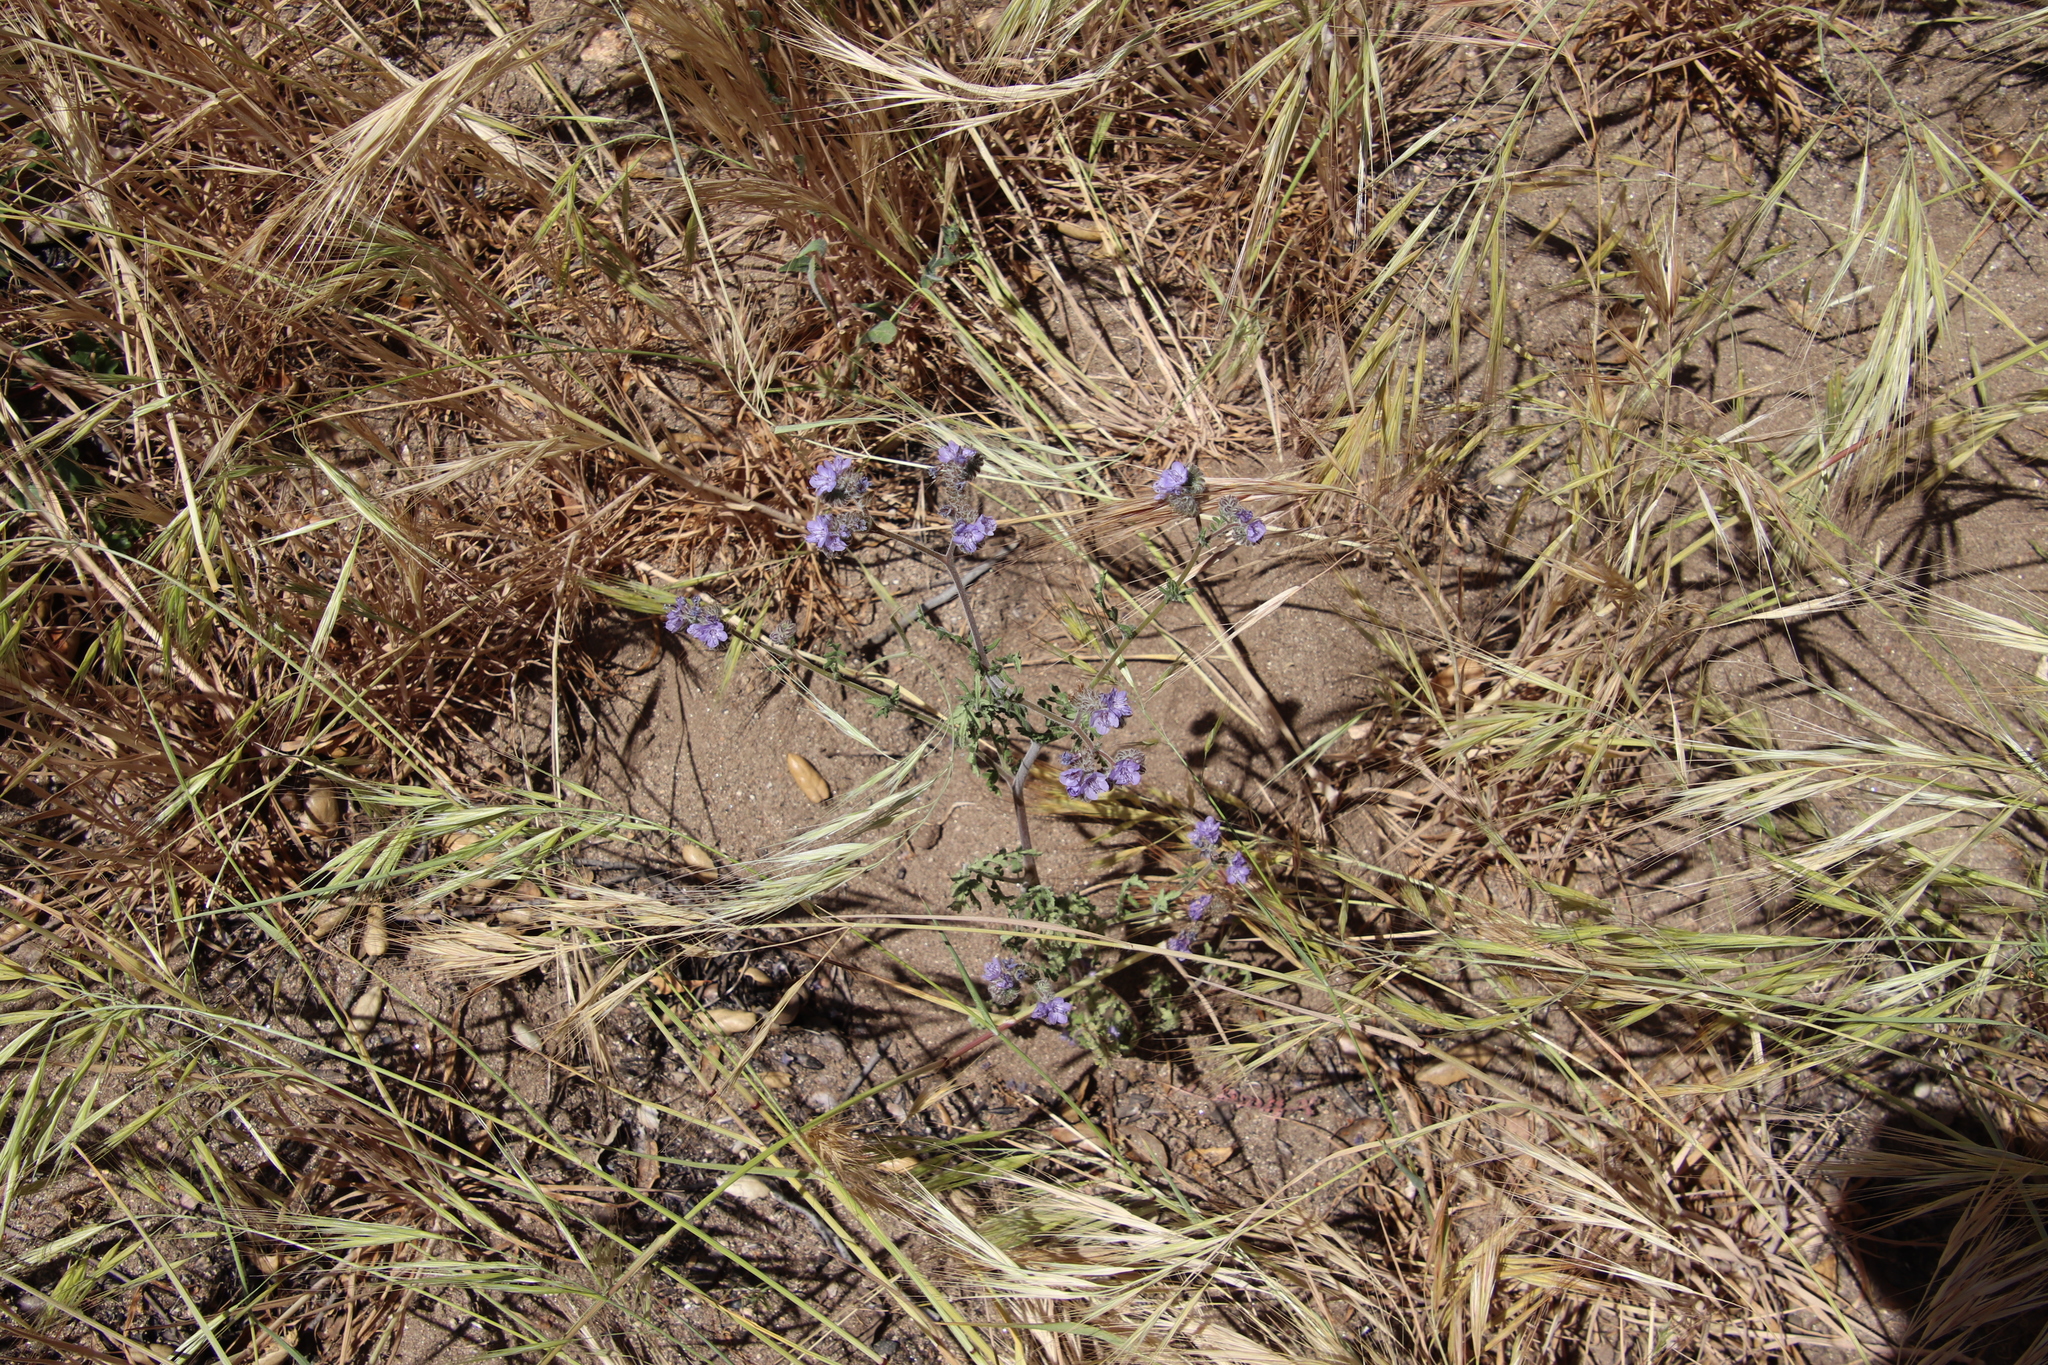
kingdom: Plantae
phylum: Tracheophyta
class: Magnoliopsida
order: Boraginales
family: Hydrophyllaceae
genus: Phacelia
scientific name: Phacelia distans
